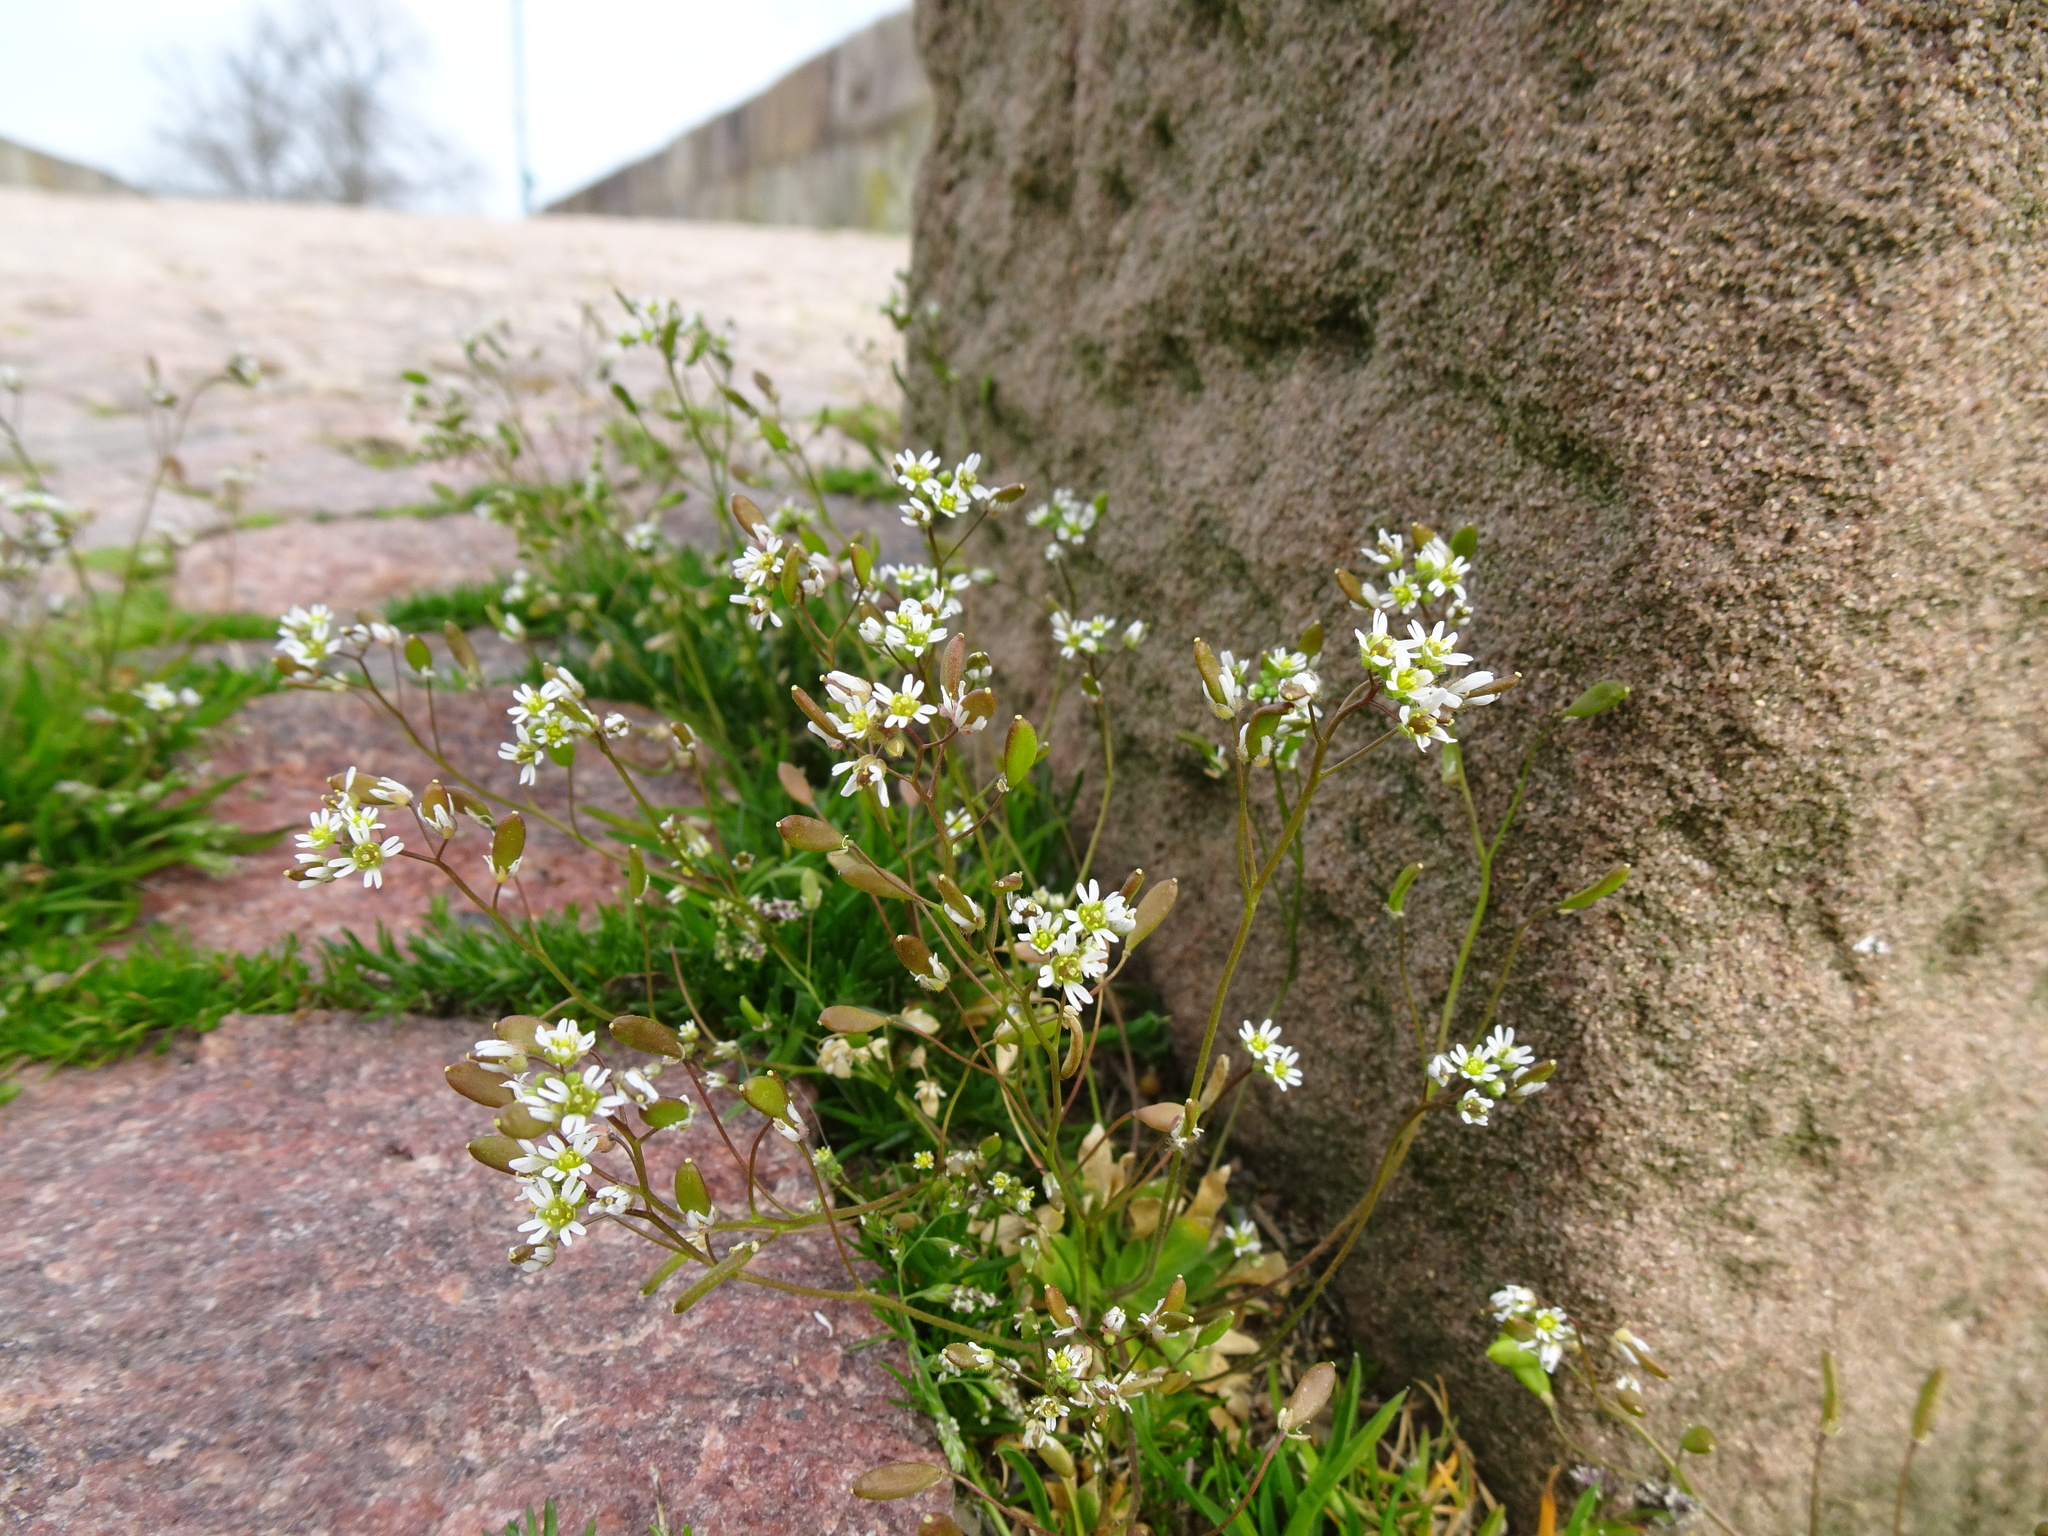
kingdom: Plantae
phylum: Tracheophyta
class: Magnoliopsida
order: Brassicales
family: Brassicaceae
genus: Draba
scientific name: Draba verna
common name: Spring draba
